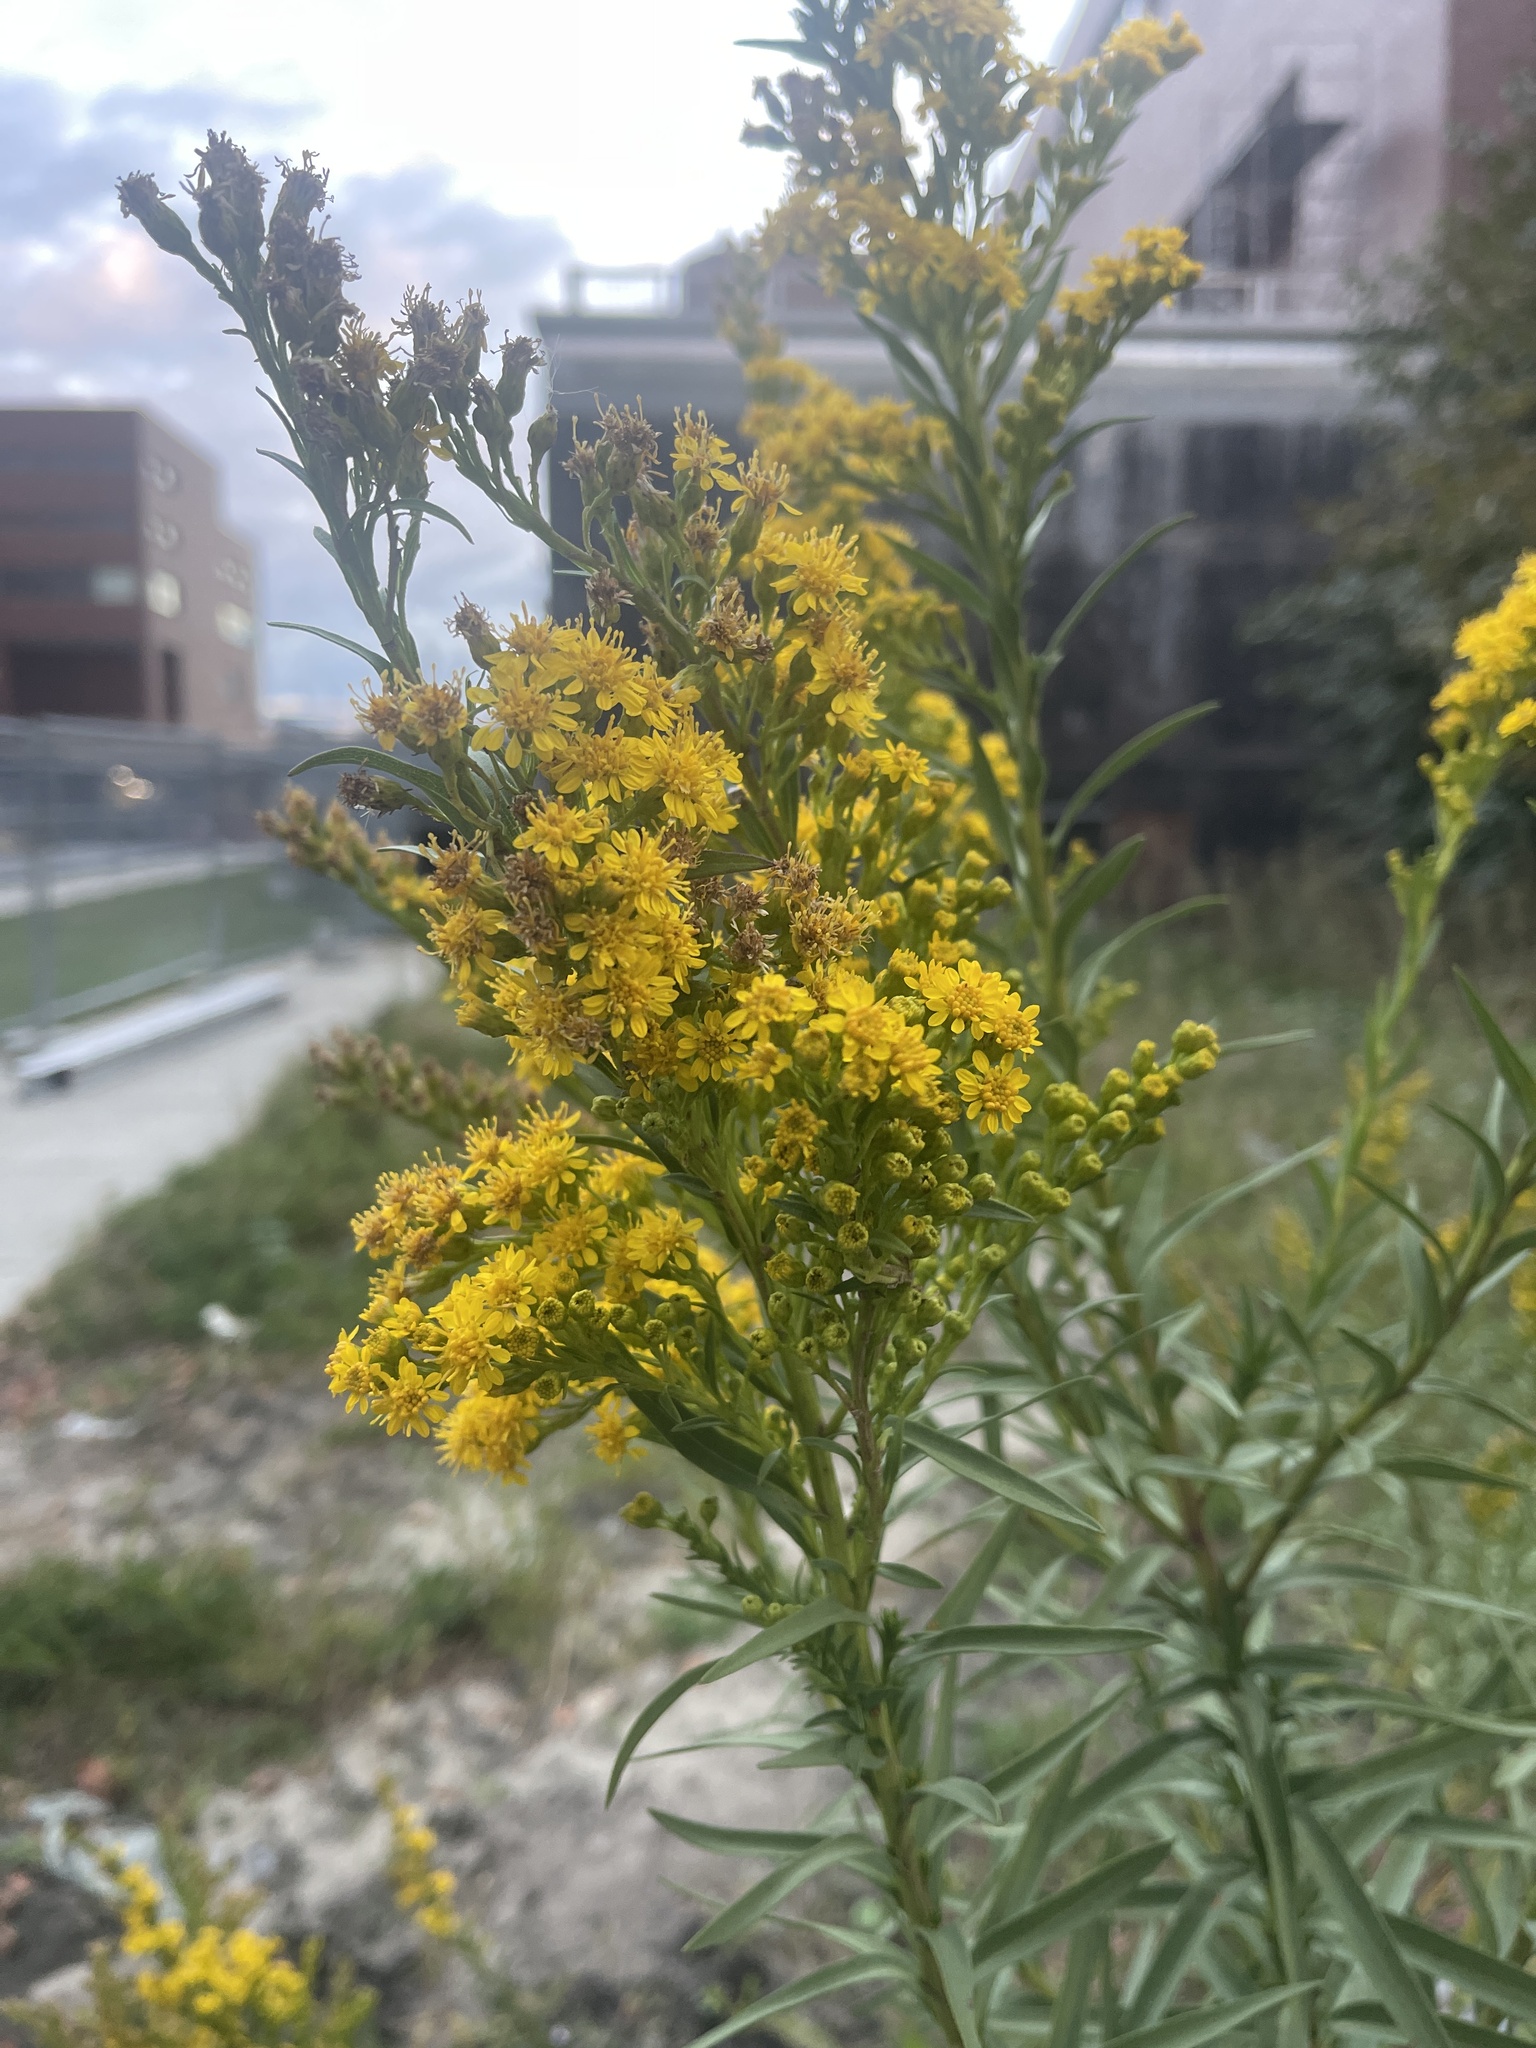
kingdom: Plantae
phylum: Tracheophyta
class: Magnoliopsida
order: Asterales
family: Asteraceae
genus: Solidago
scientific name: Solidago sempervirens
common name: Salt-marsh goldenrod
